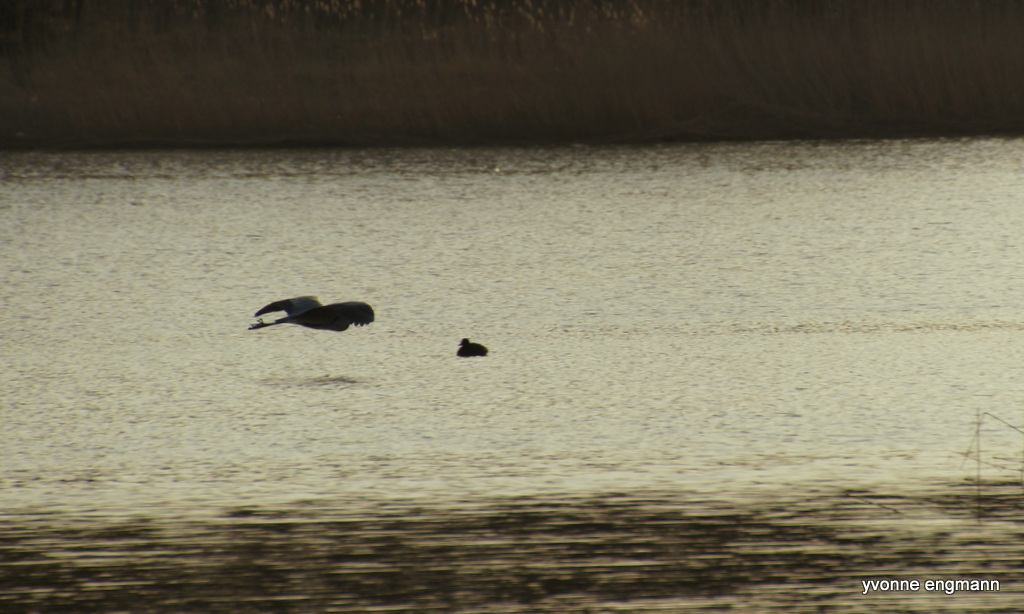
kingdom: Animalia
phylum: Chordata
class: Aves
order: Pelecaniformes
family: Ardeidae
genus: Ardea
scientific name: Ardea cinerea
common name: Grey heron
